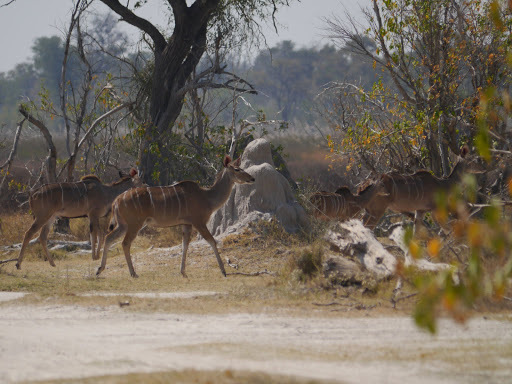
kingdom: Animalia
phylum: Chordata
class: Mammalia
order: Artiodactyla
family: Bovidae
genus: Tragelaphus
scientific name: Tragelaphus strepsiceros
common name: Greater kudu
